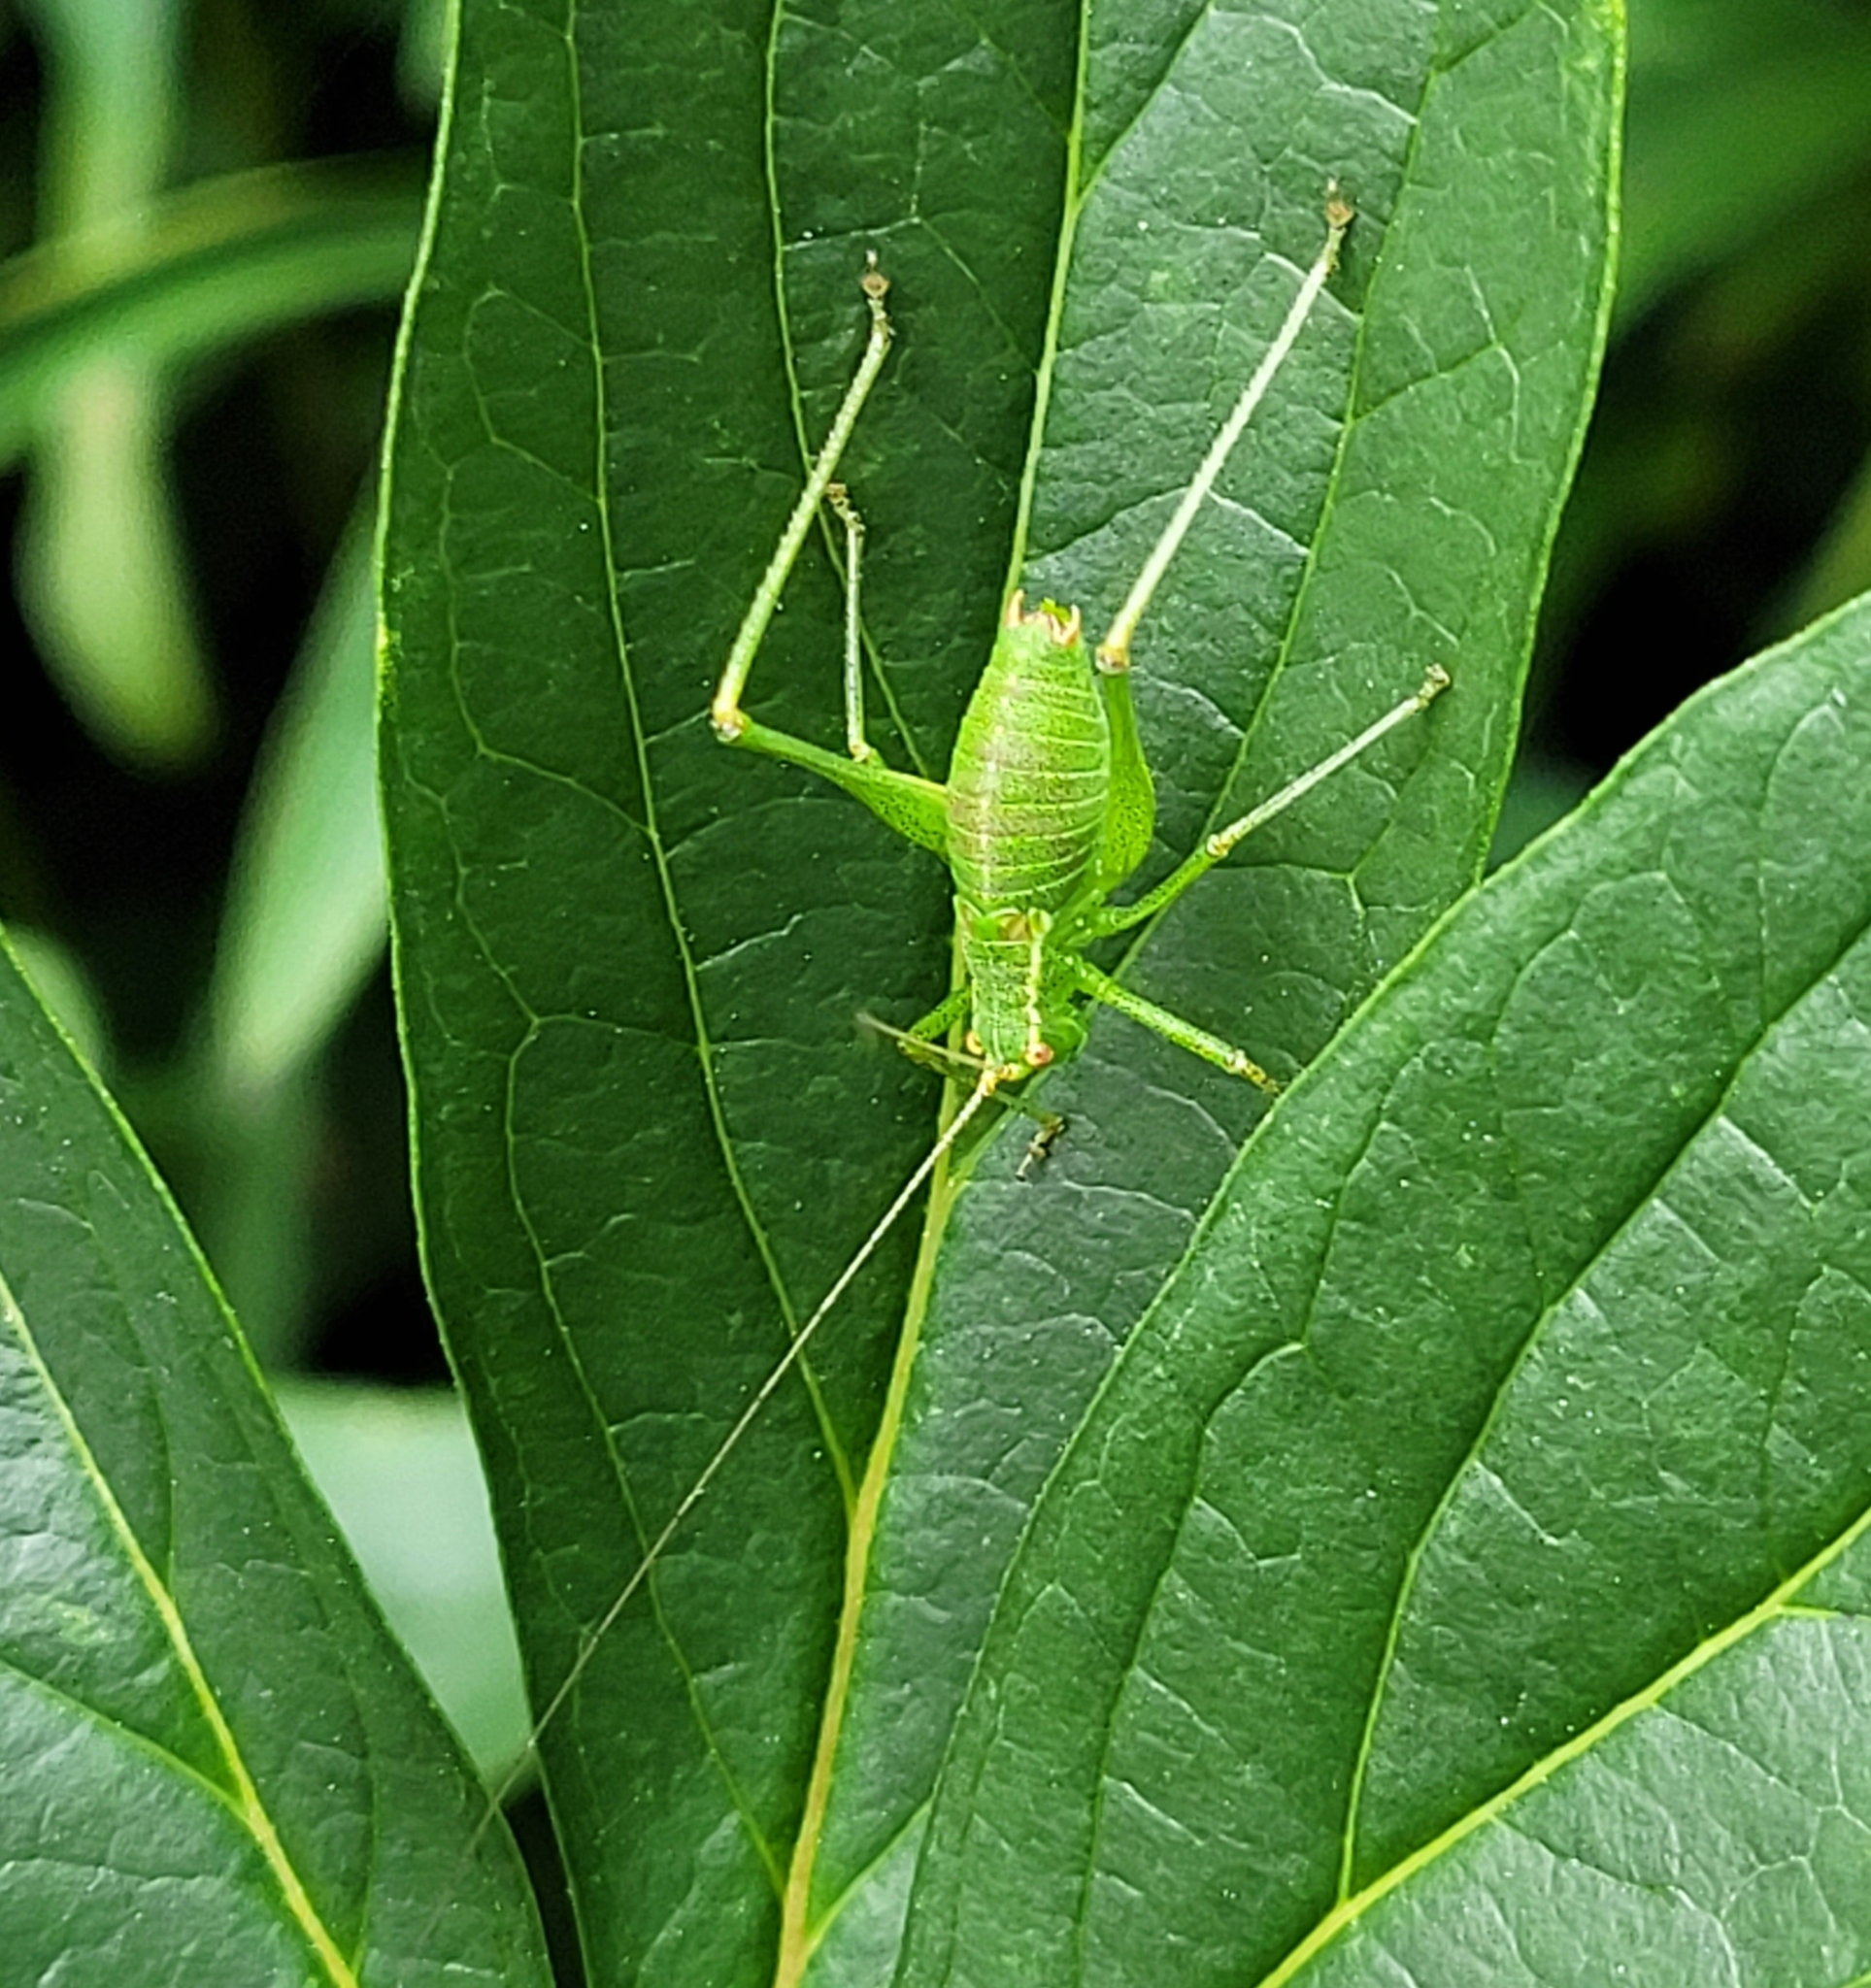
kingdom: Animalia
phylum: Arthropoda
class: Insecta
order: Orthoptera
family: Tettigoniidae
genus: Leptophyes
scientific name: Leptophyes punctatissima
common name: Speckled bush-cricket
